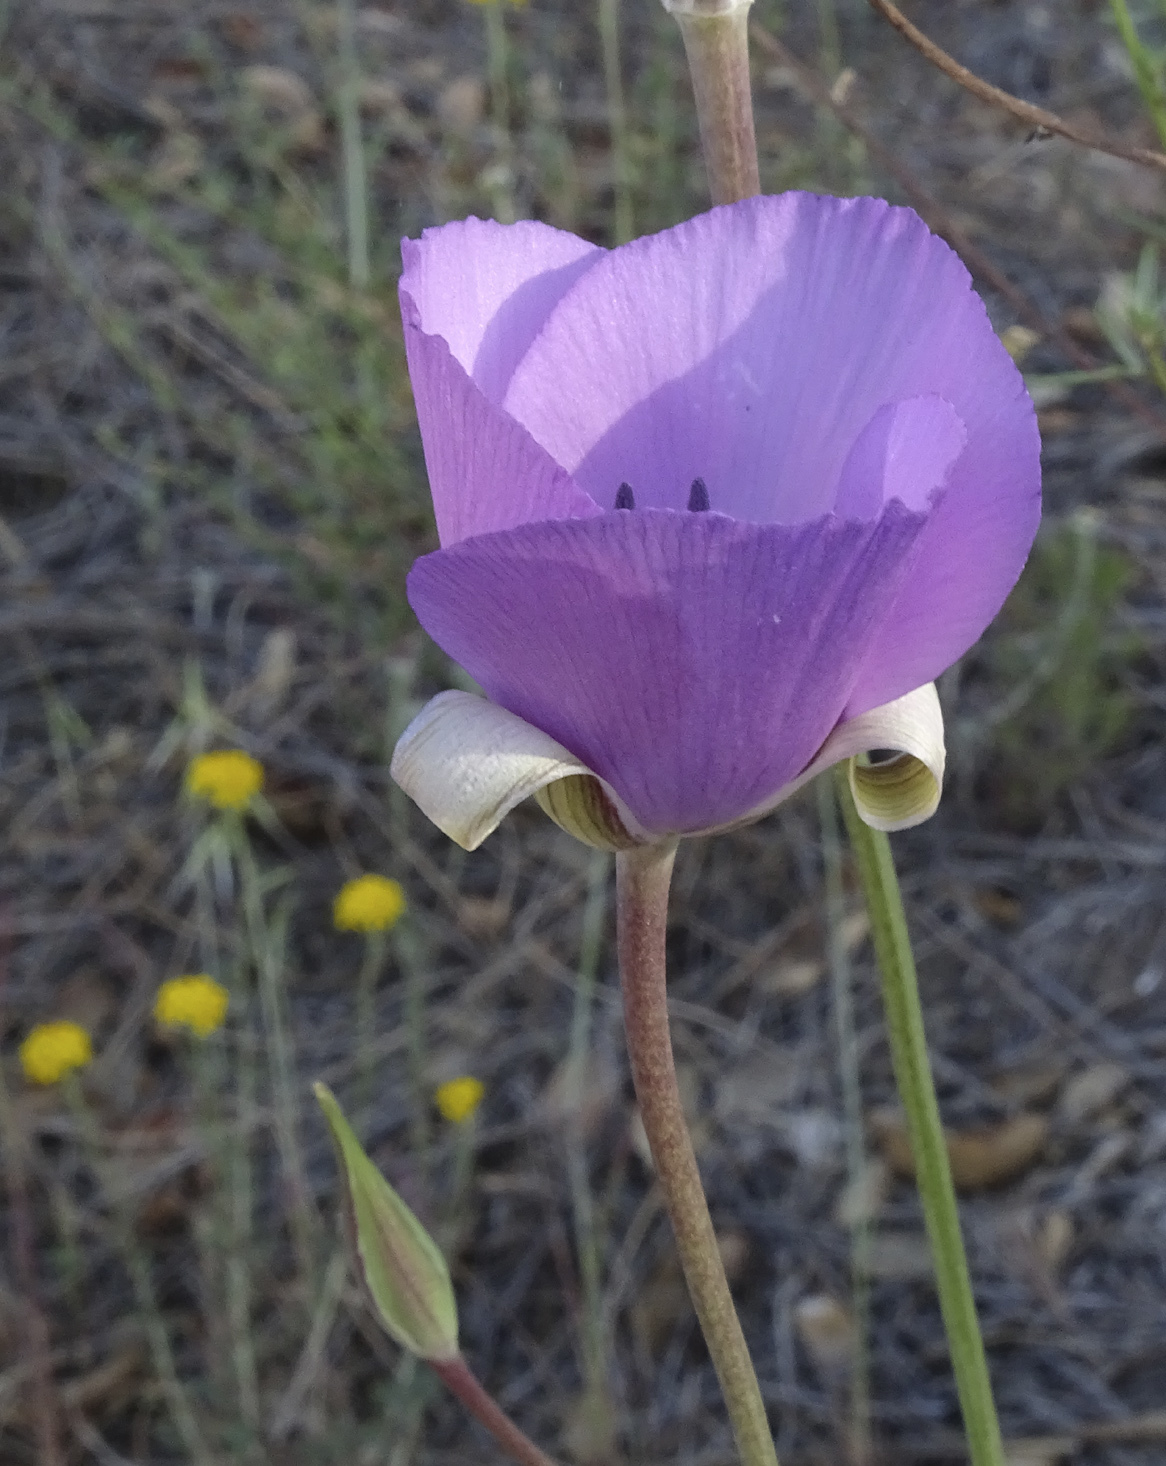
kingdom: Plantae
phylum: Tracheophyta
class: Liliopsida
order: Liliales
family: Liliaceae
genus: Calochortus
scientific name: Calochortus splendens
